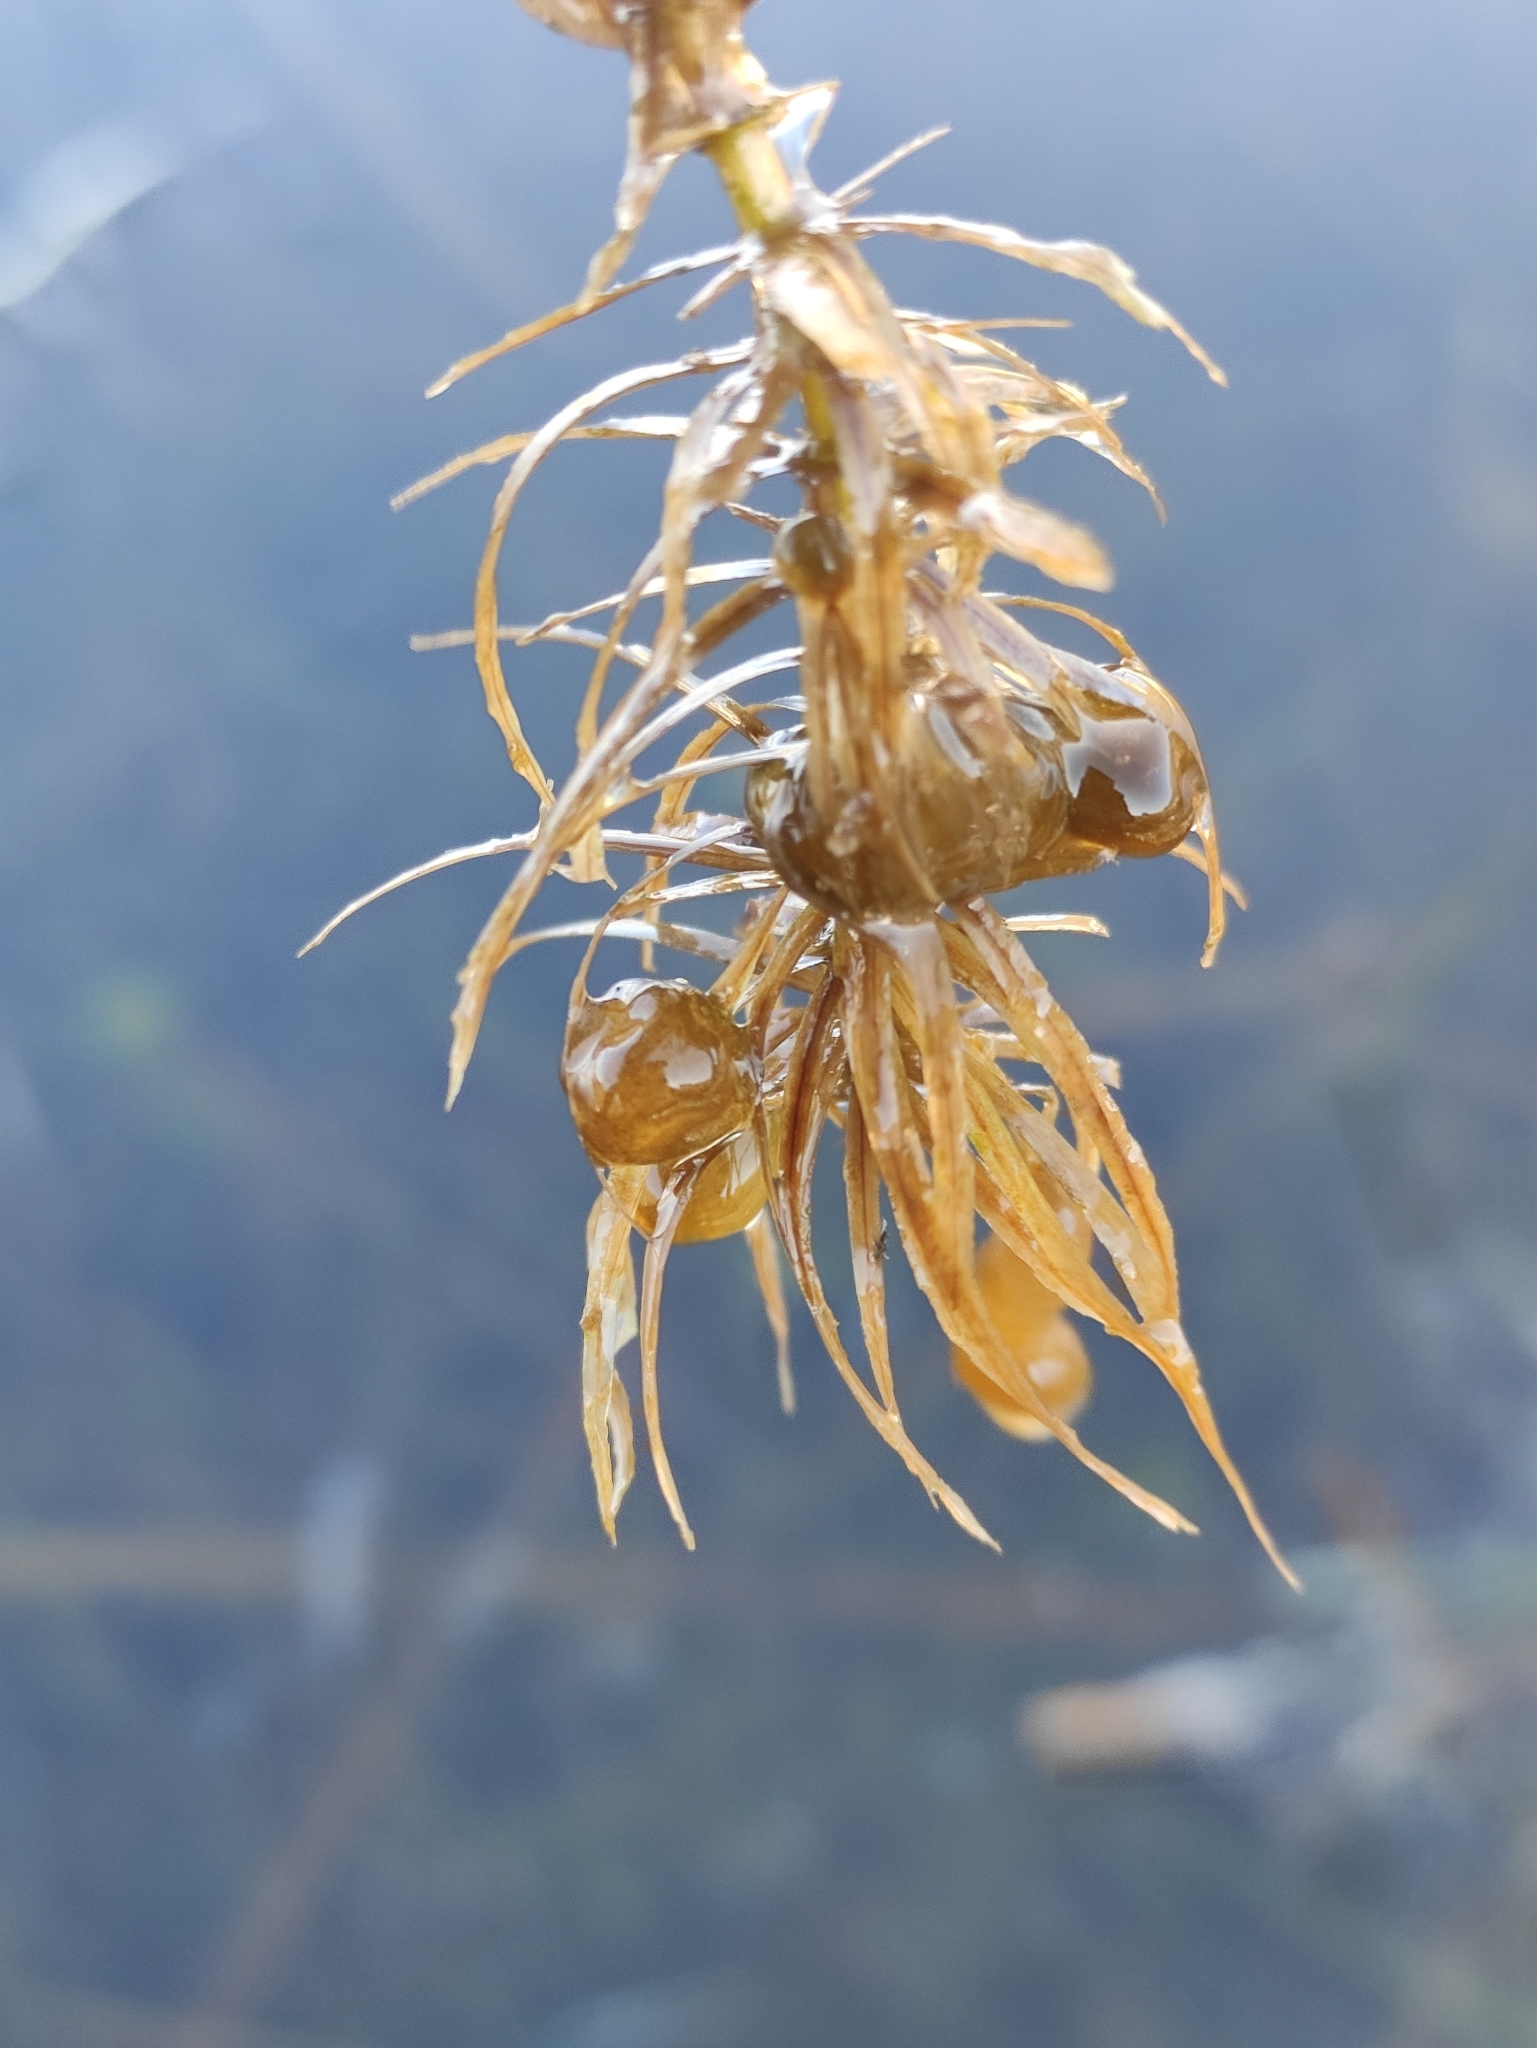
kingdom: Plantae
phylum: Tracheophyta
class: Magnoliopsida
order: Lamiales
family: Plantaginaceae
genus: Hippuris
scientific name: Hippuris vulgaris
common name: Mare's-tail
